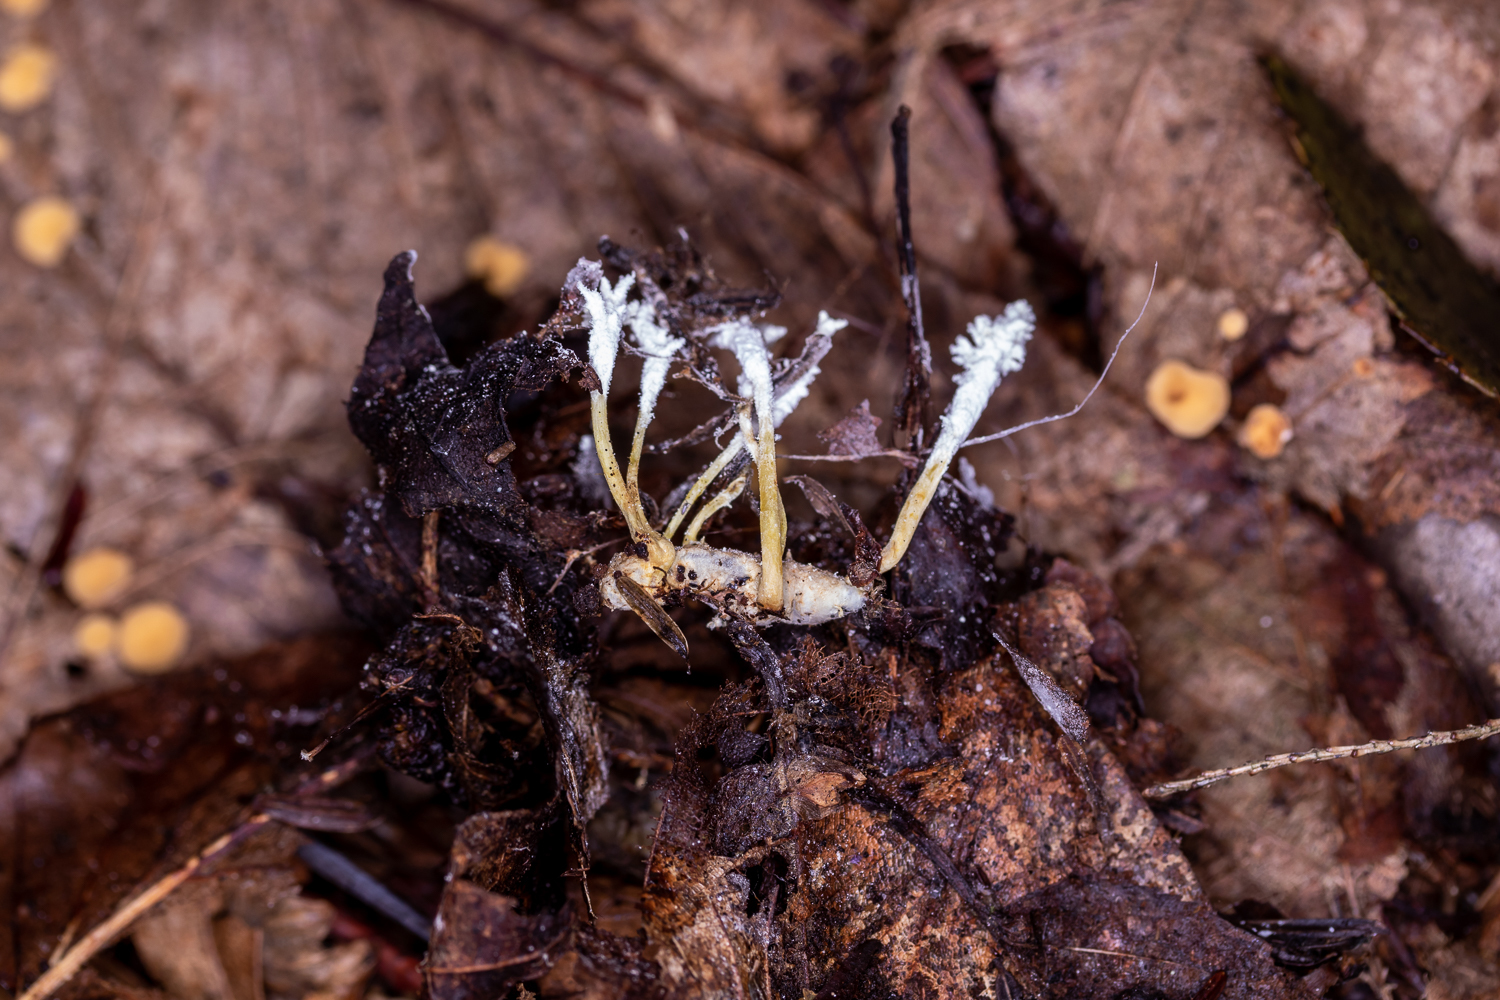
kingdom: Fungi
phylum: Ascomycota
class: Sordariomycetes
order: Hypocreales
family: Cordycipitaceae
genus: Cordyceps
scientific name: Cordyceps tenuipes
